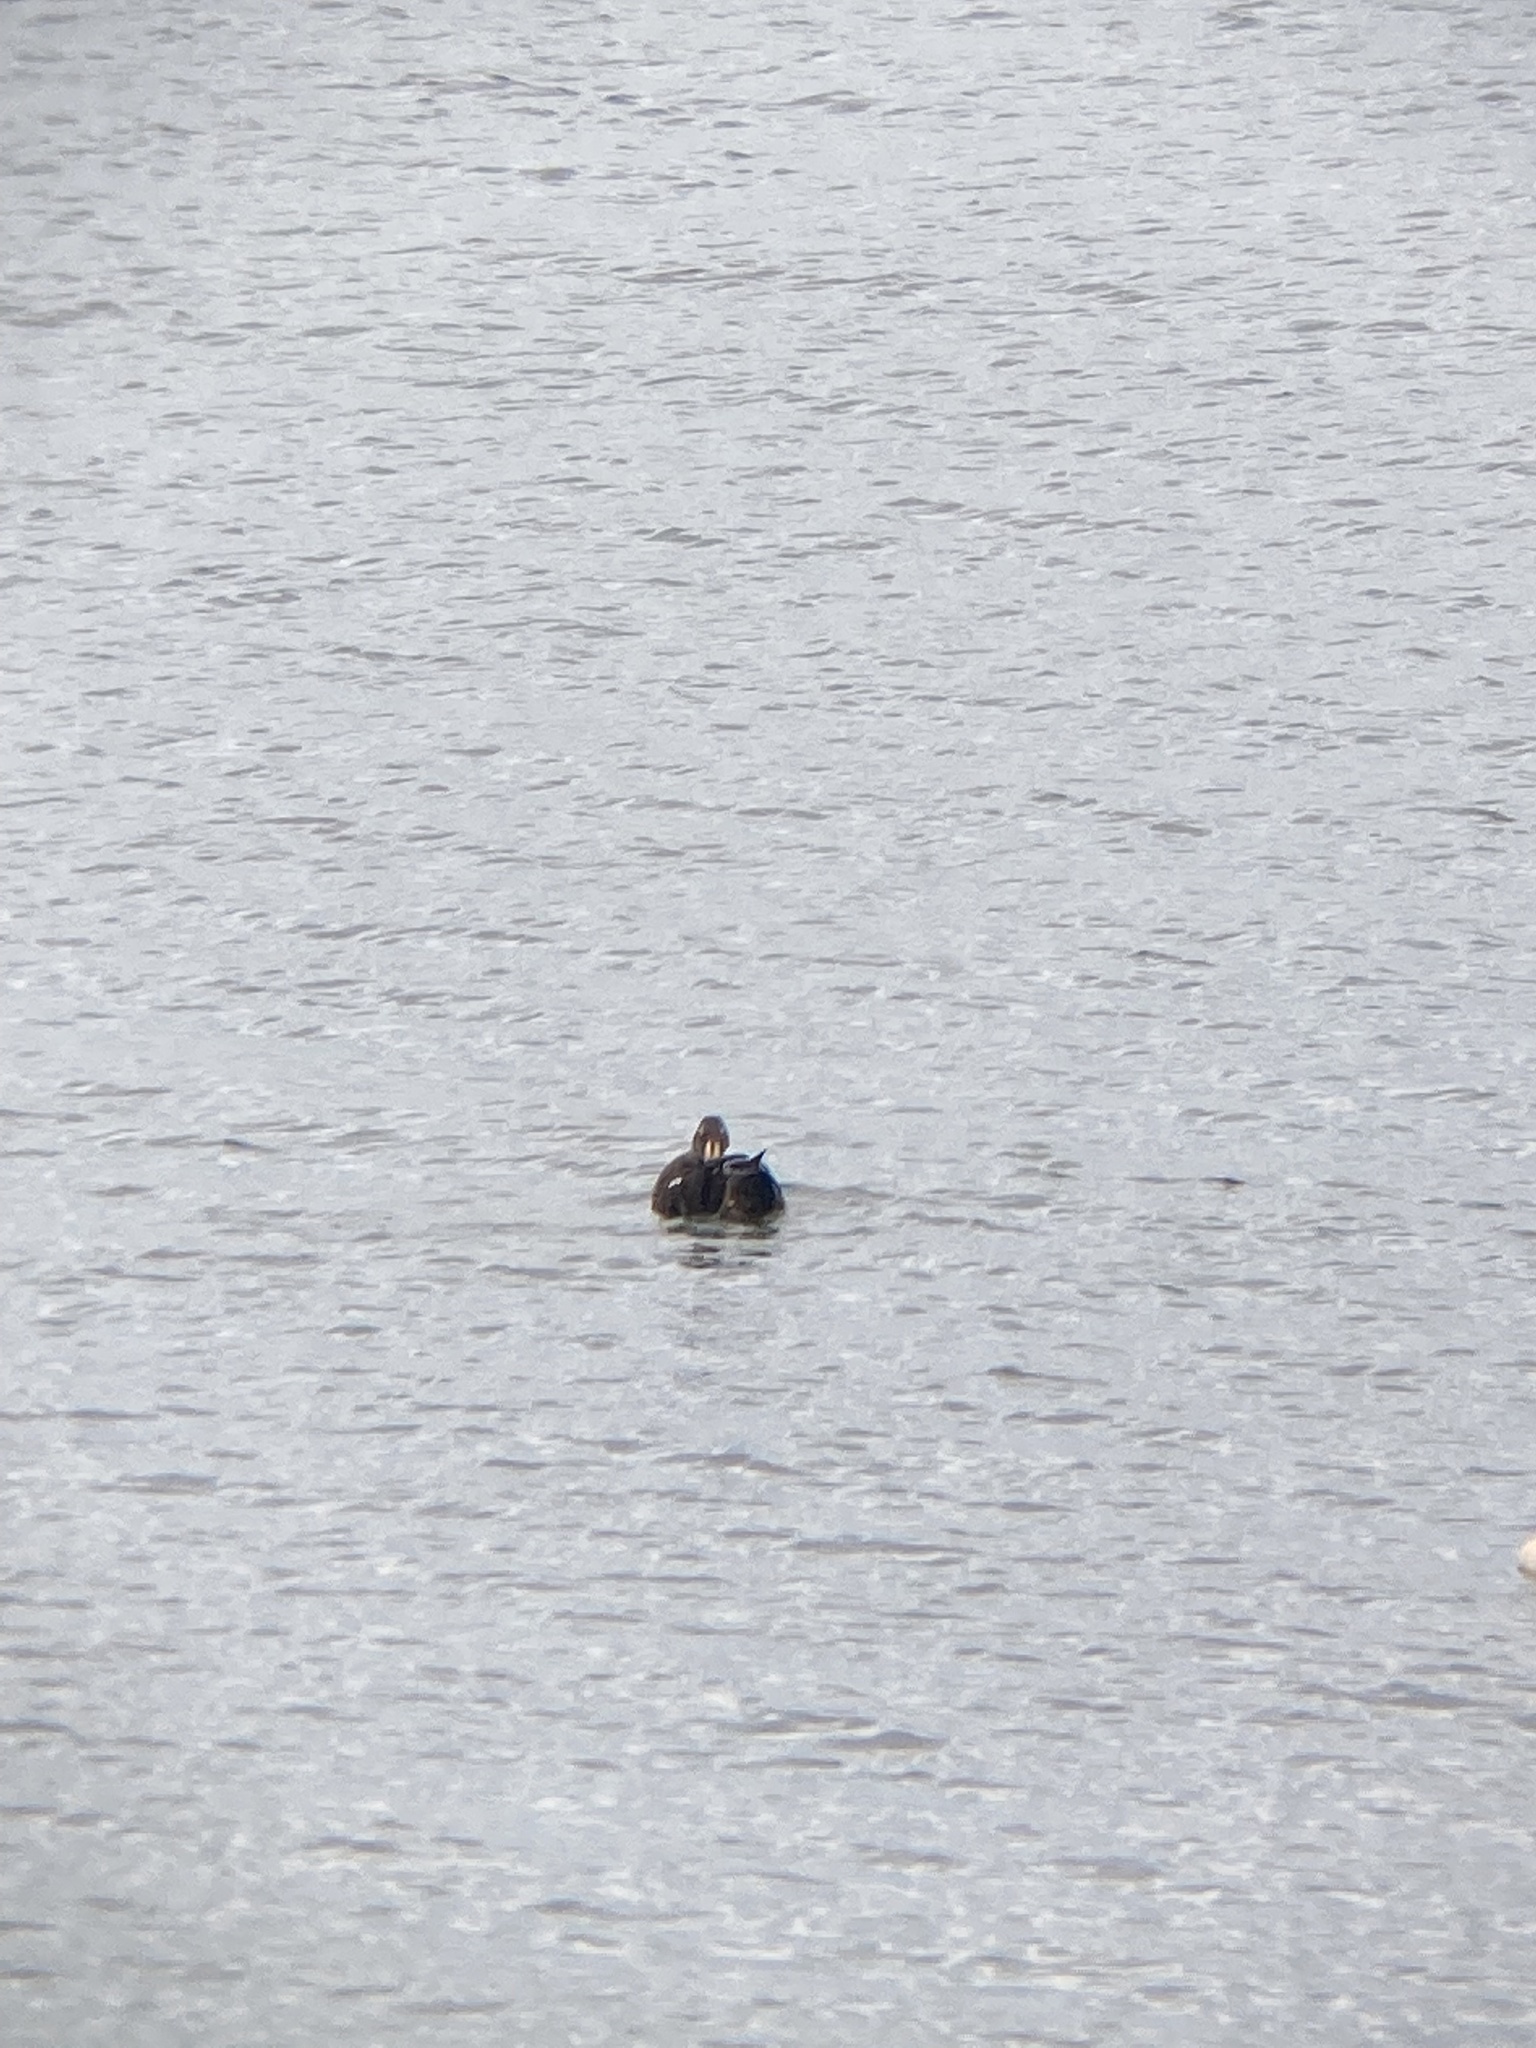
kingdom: Animalia
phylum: Chordata
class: Aves
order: Anseriformes
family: Anatidae
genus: Somateria
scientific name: Somateria spectabilis
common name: King eider
